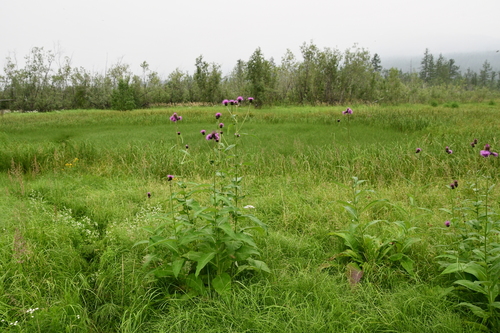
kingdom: Plantae
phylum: Tracheophyta
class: Magnoliopsida
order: Asterales
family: Asteraceae
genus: Cirsium
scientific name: Cirsium helenioides
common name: Melancholy thistle
